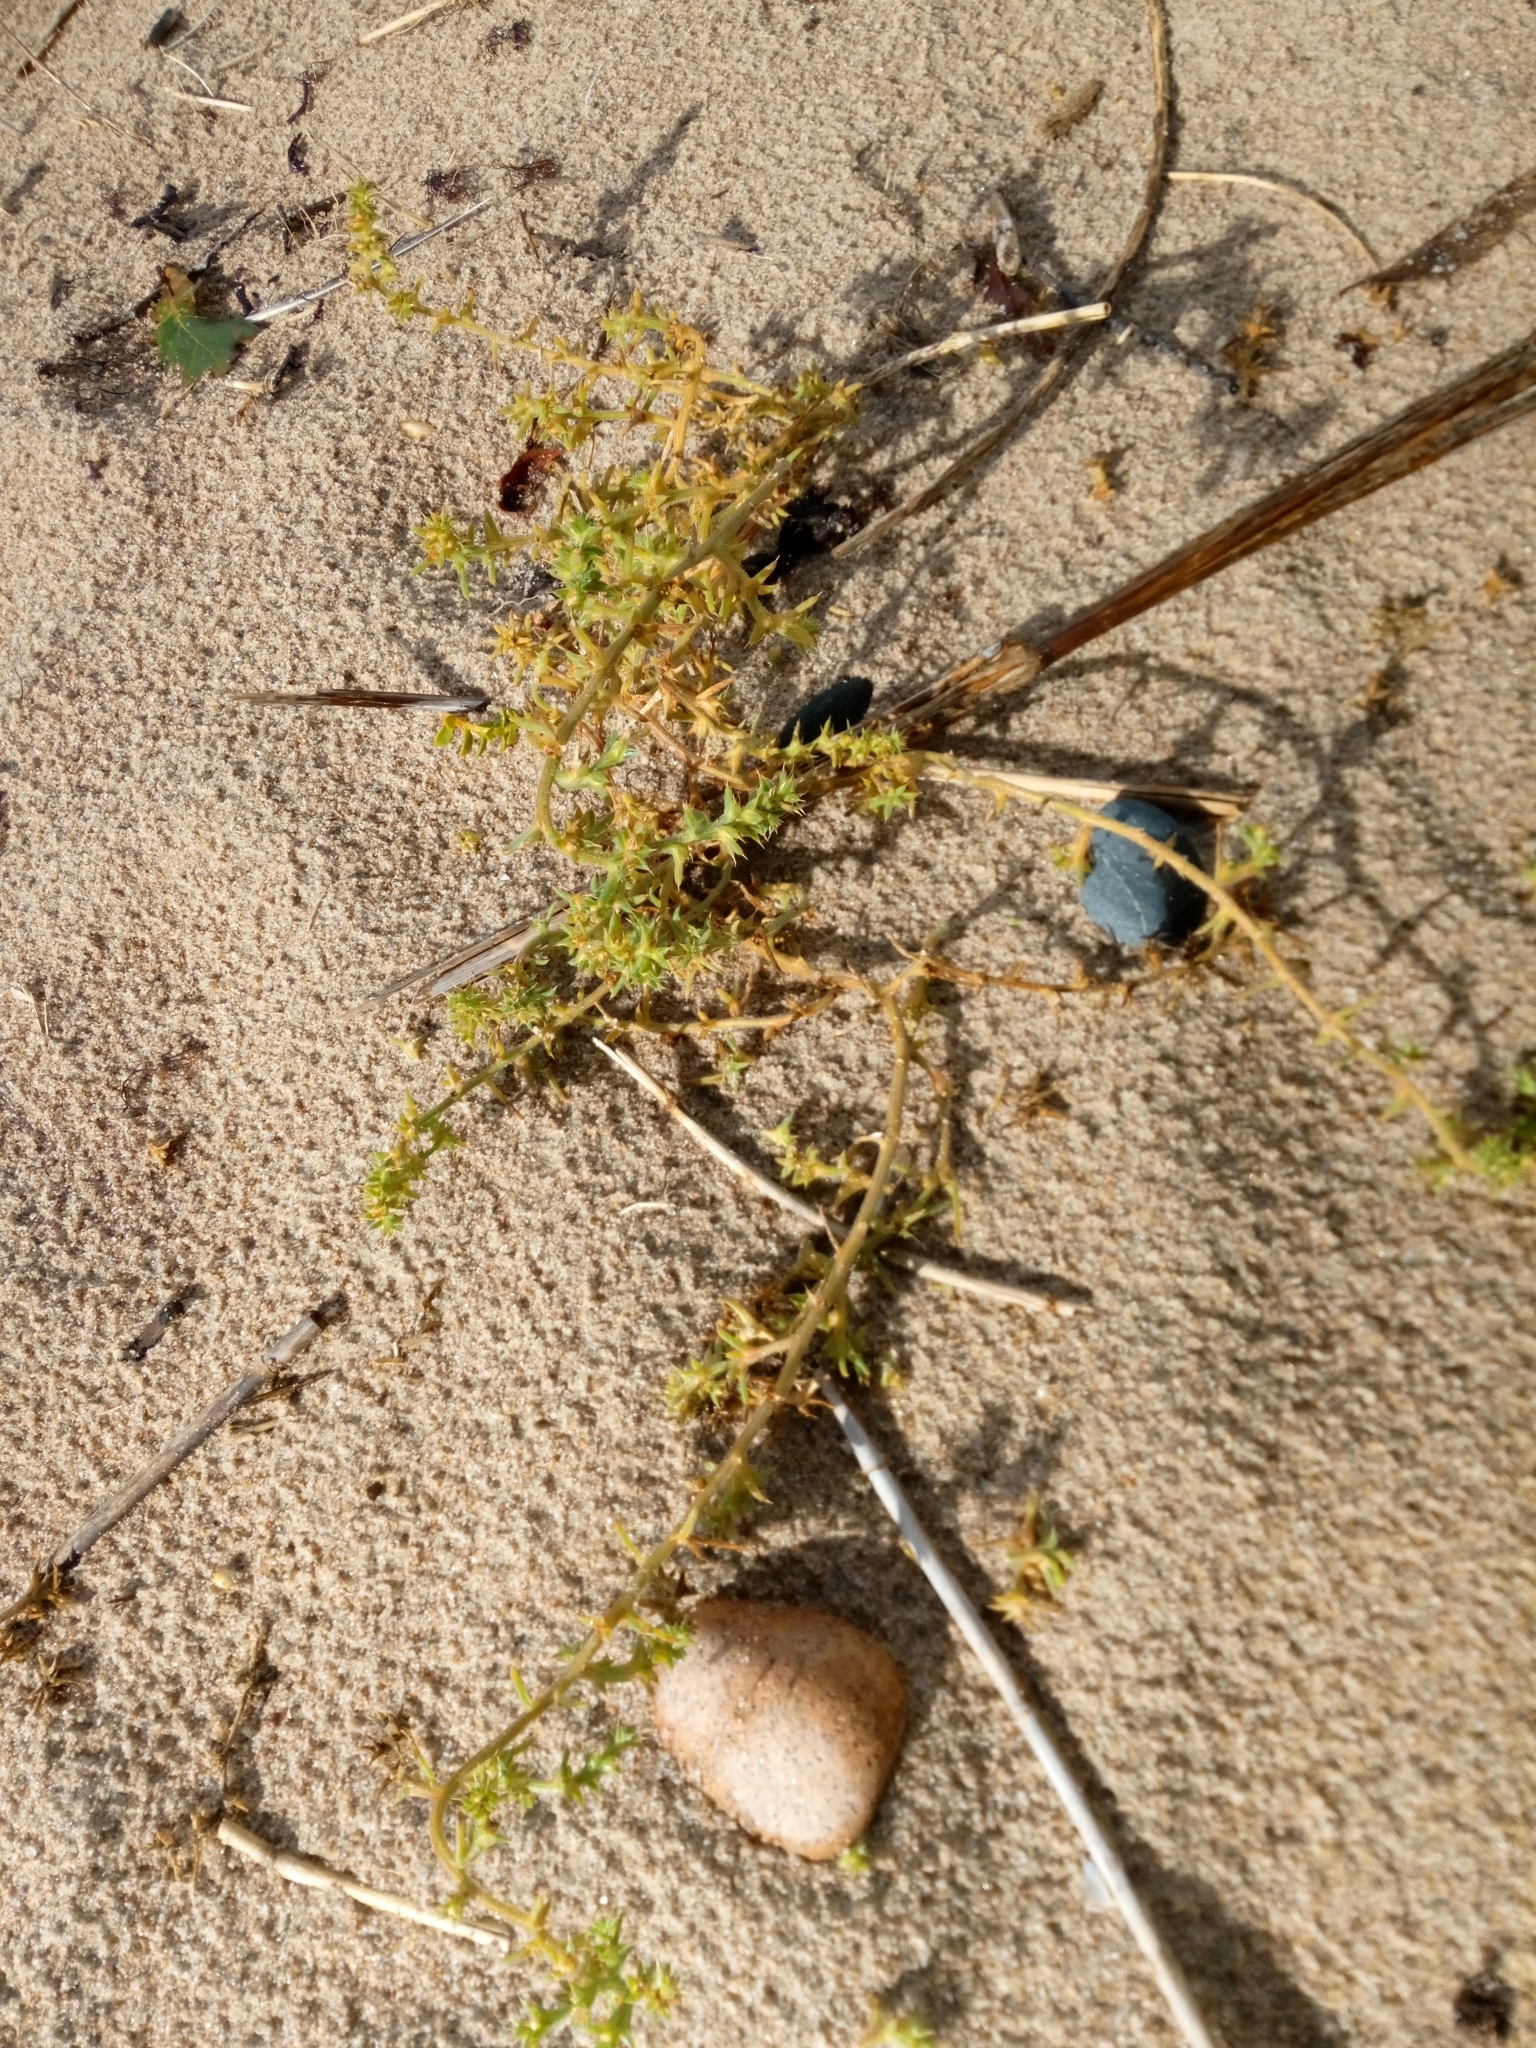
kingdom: Plantae
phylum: Tracheophyta
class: Magnoliopsida
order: Caryophyllales
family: Amaranthaceae
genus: Salsola
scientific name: Salsola kali
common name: Saltwort
